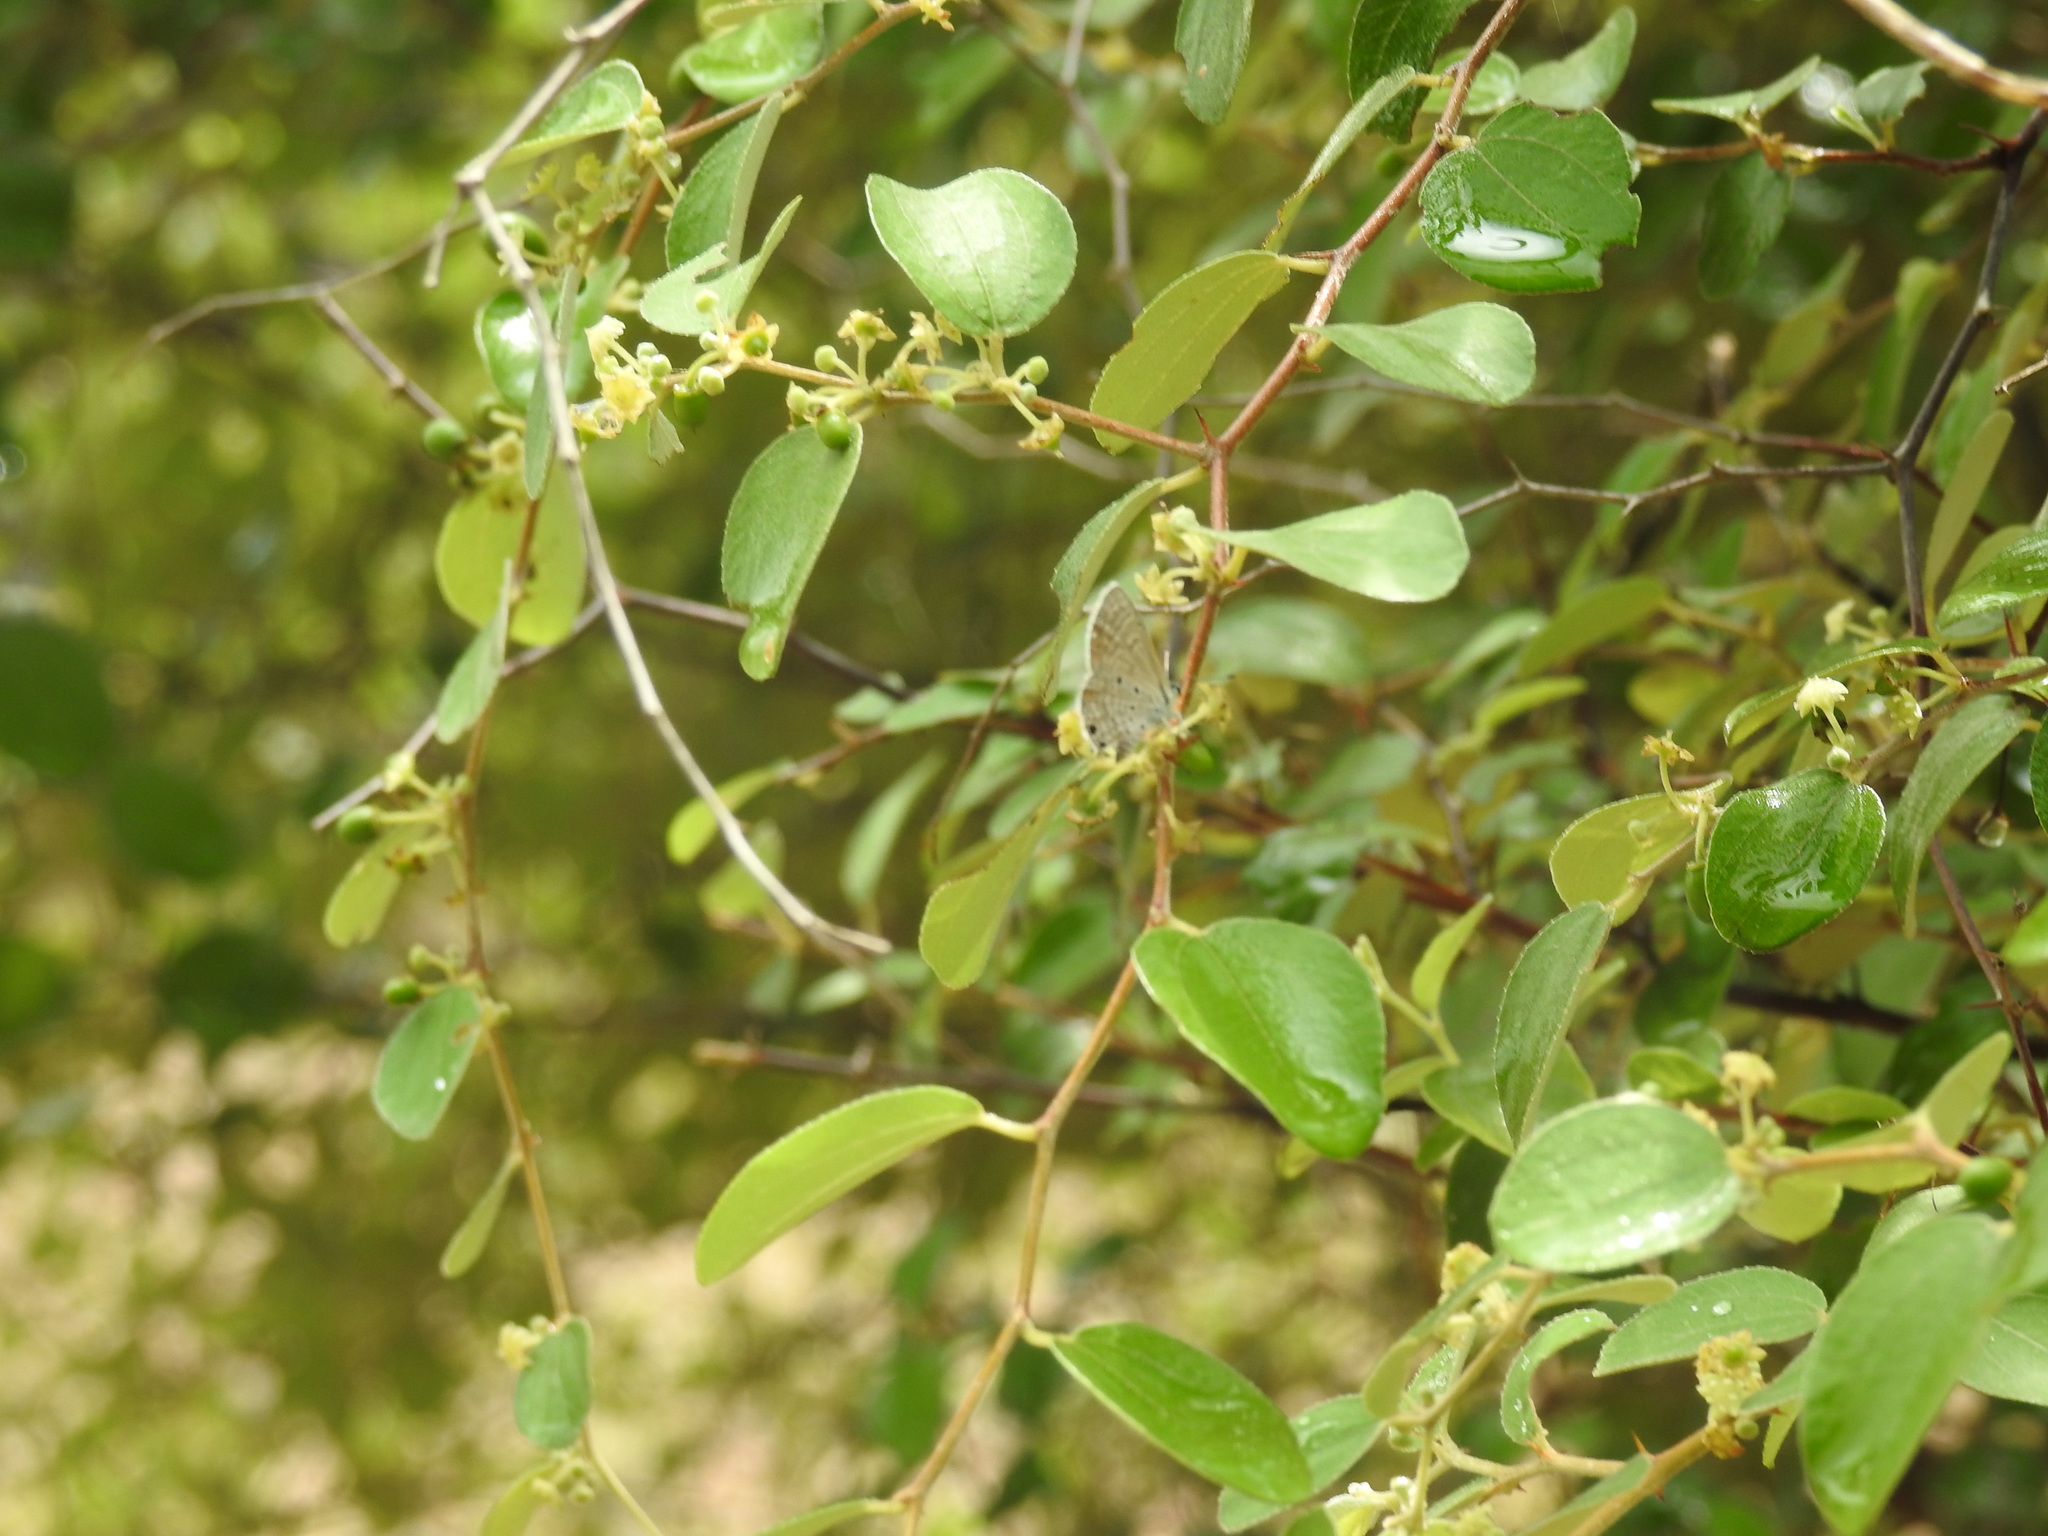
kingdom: Animalia
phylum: Arthropoda
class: Insecta
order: Lepidoptera
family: Lycaenidae
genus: Azanus
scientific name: Azanus ubaldus
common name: Desert babul blue
